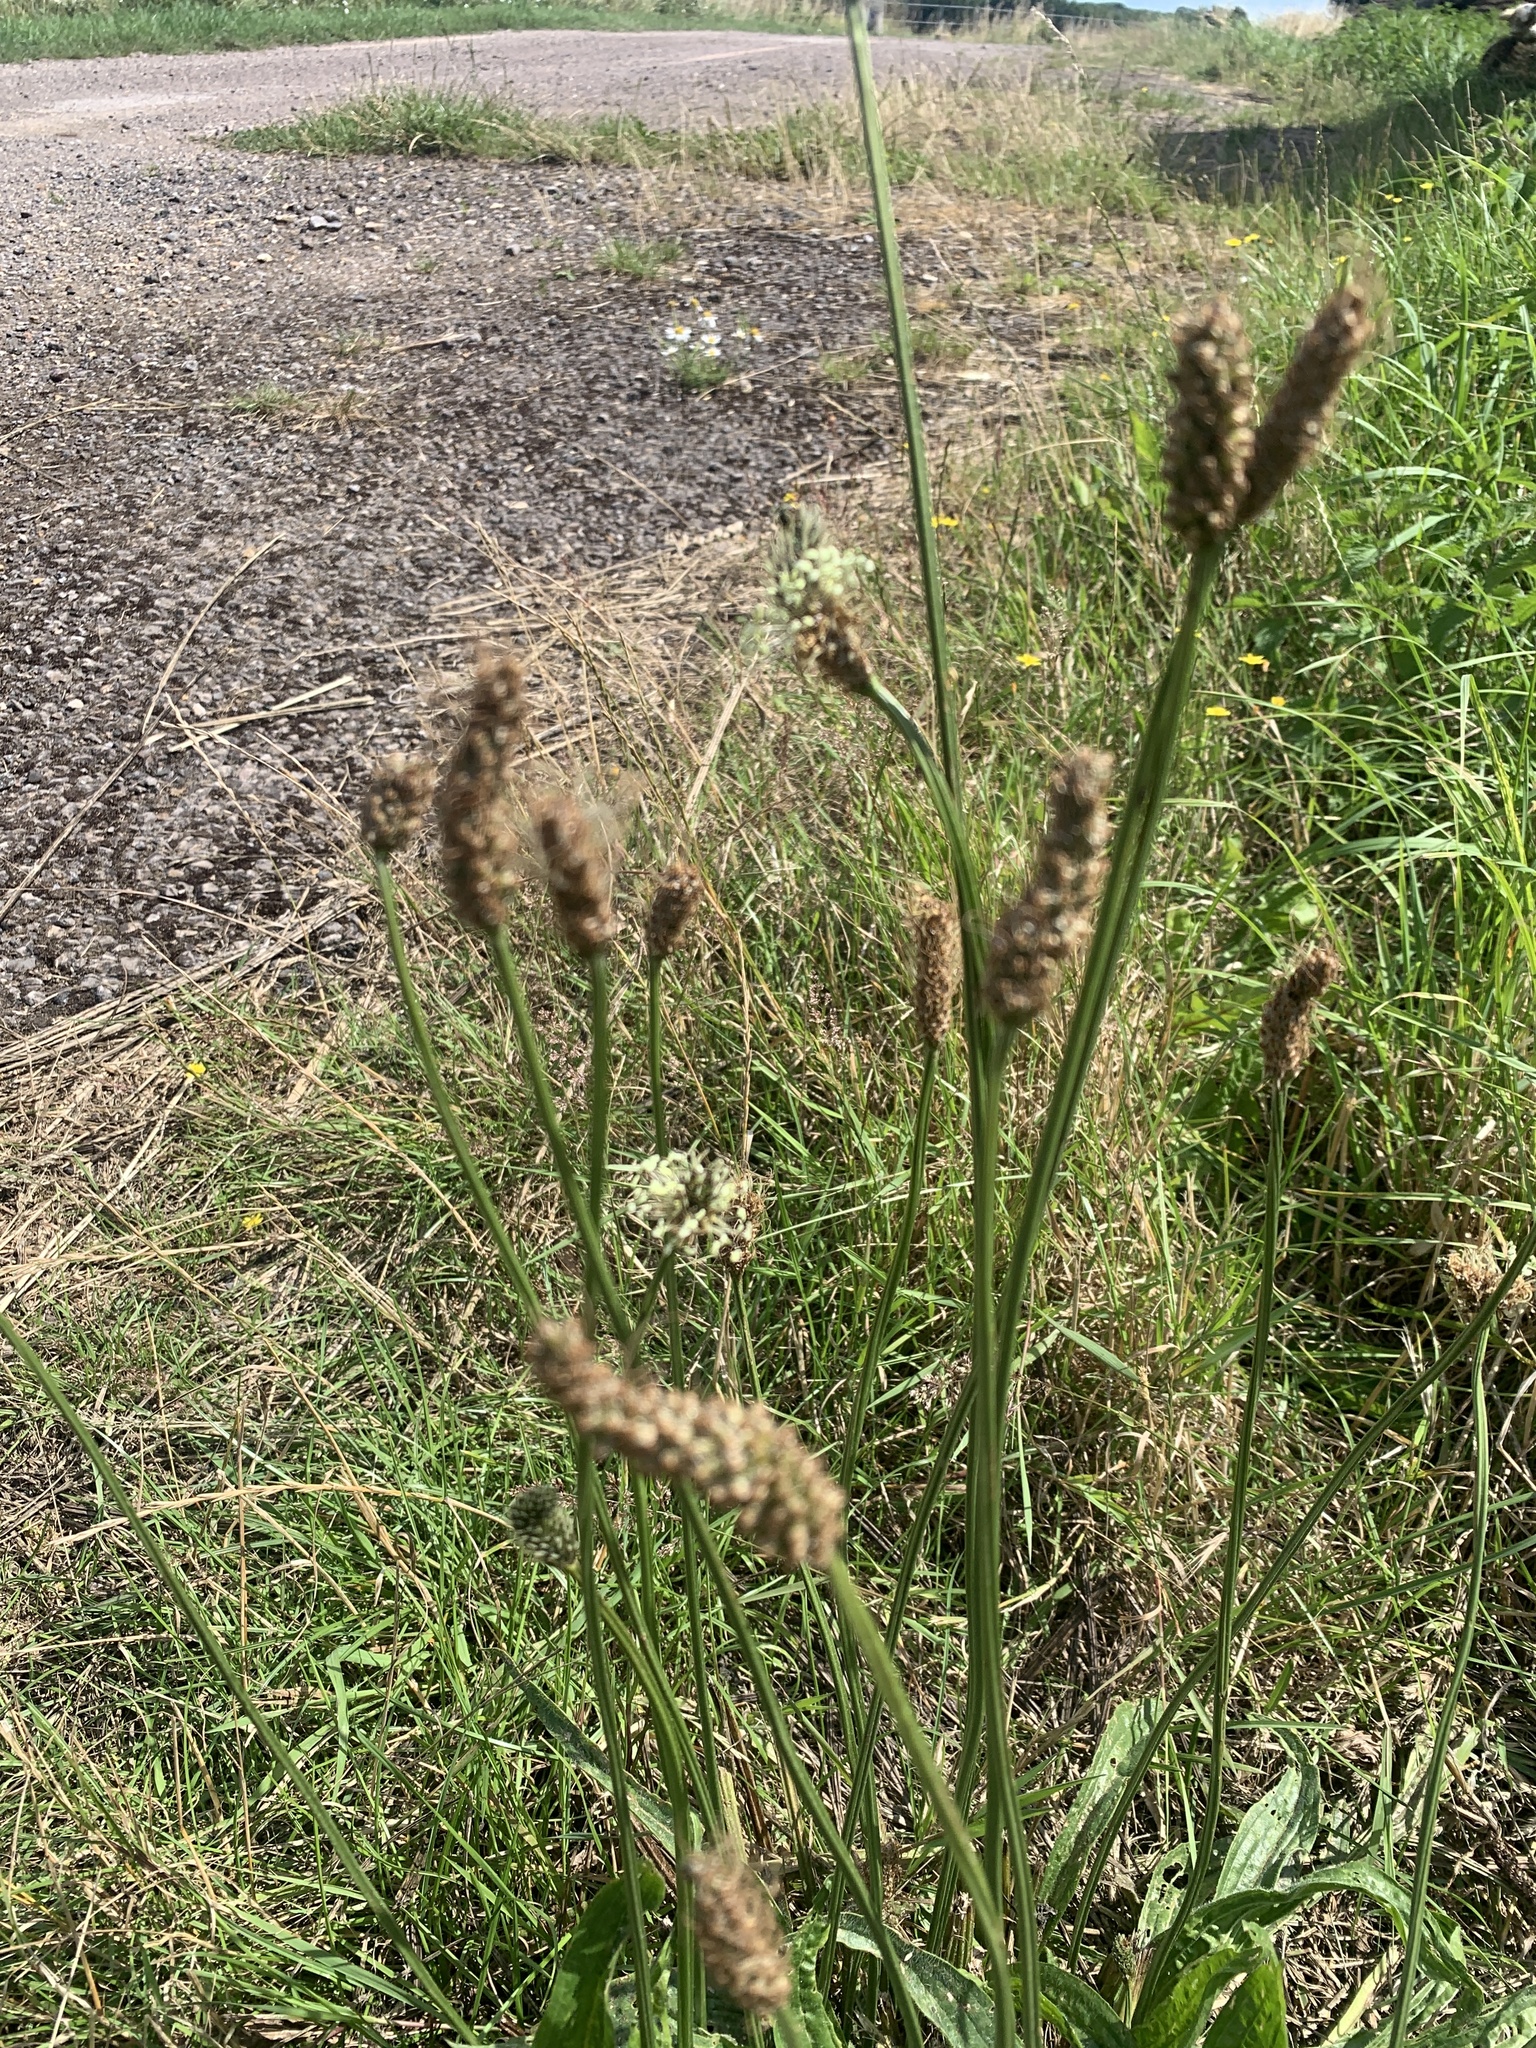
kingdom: Plantae
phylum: Tracheophyta
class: Magnoliopsida
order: Lamiales
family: Plantaginaceae
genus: Plantago
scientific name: Plantago lanceolata
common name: Ribwort plantain
